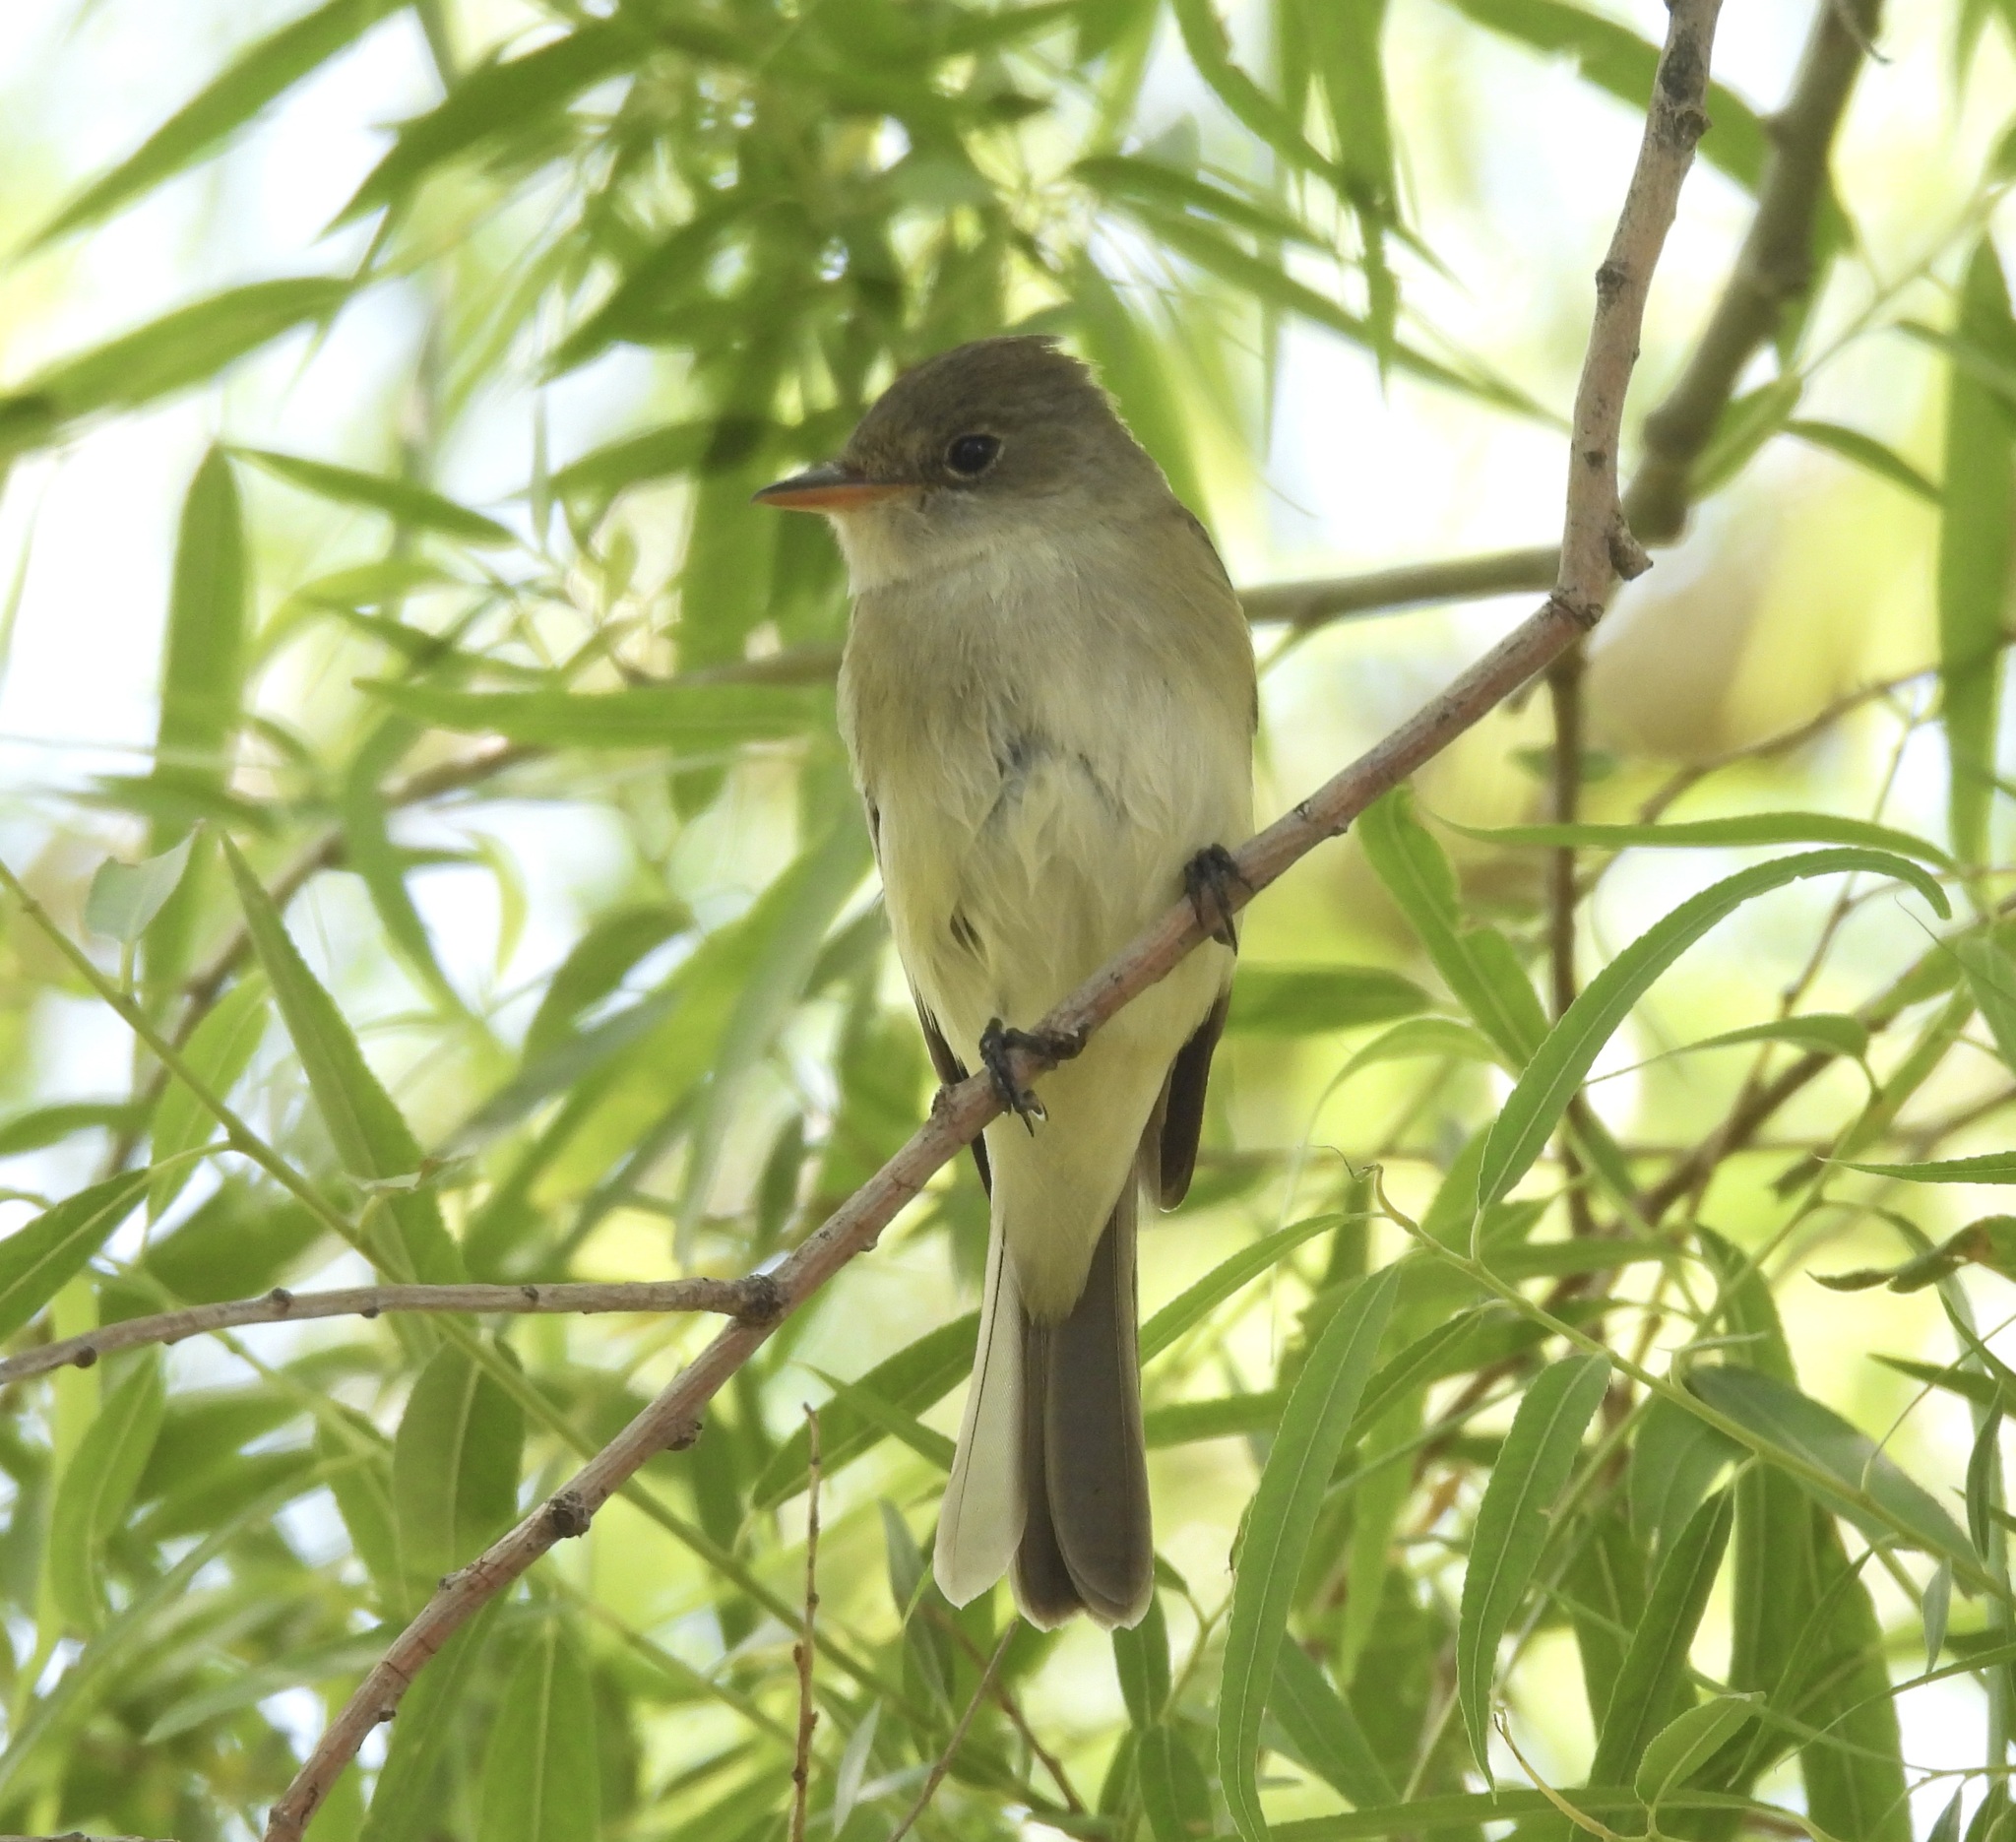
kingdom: Animalia
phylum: Chordata
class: Aves
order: Passeriformes
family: Tyrannidae
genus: Empidonax
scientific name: Empidonax traillii
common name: Willow flycatcher
